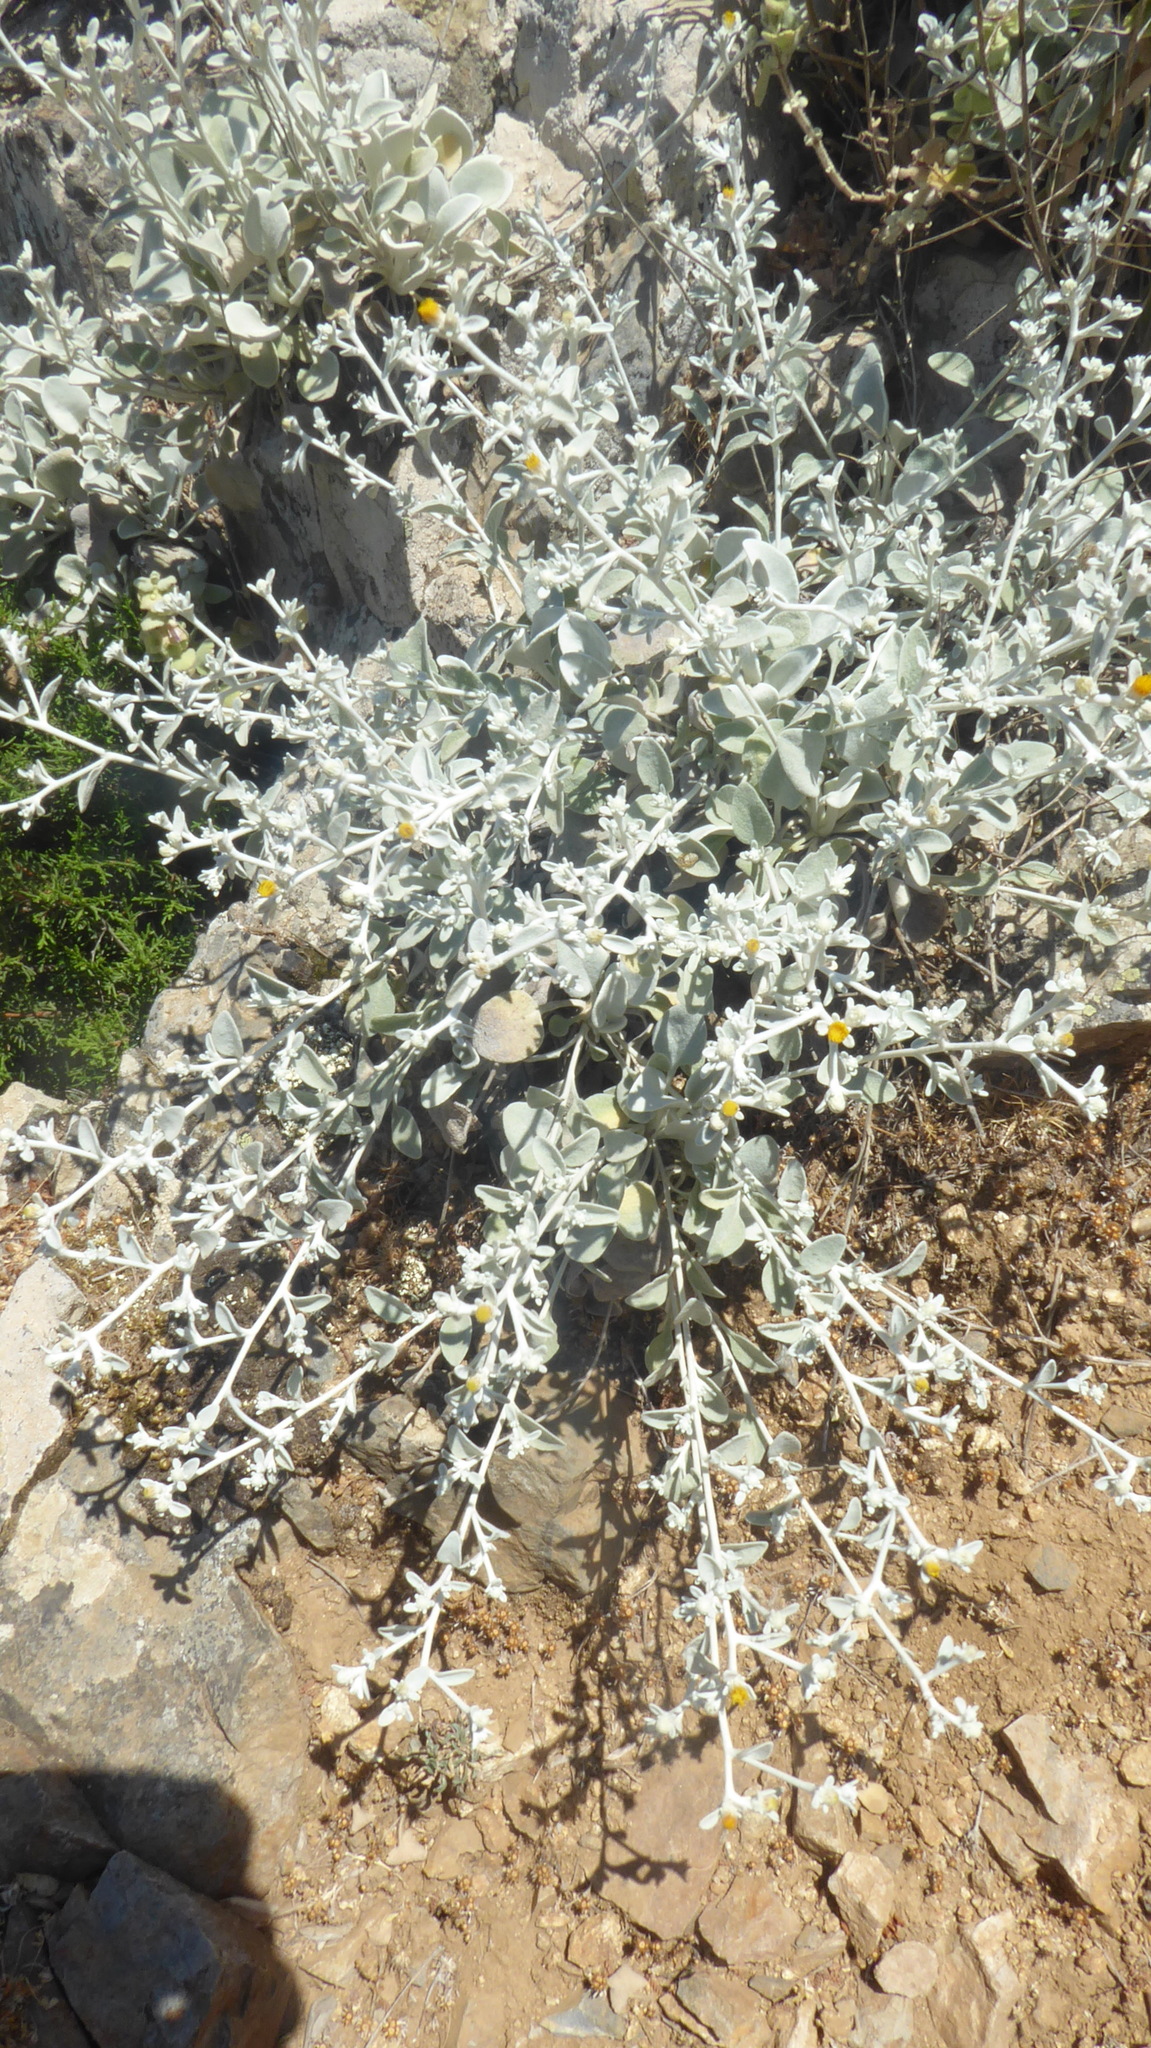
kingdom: Plantae
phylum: Tracheophyta
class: Magnoliopsida
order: Asterales
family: Asteraceae
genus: Pentanema
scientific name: Pentanema verbascifolium
